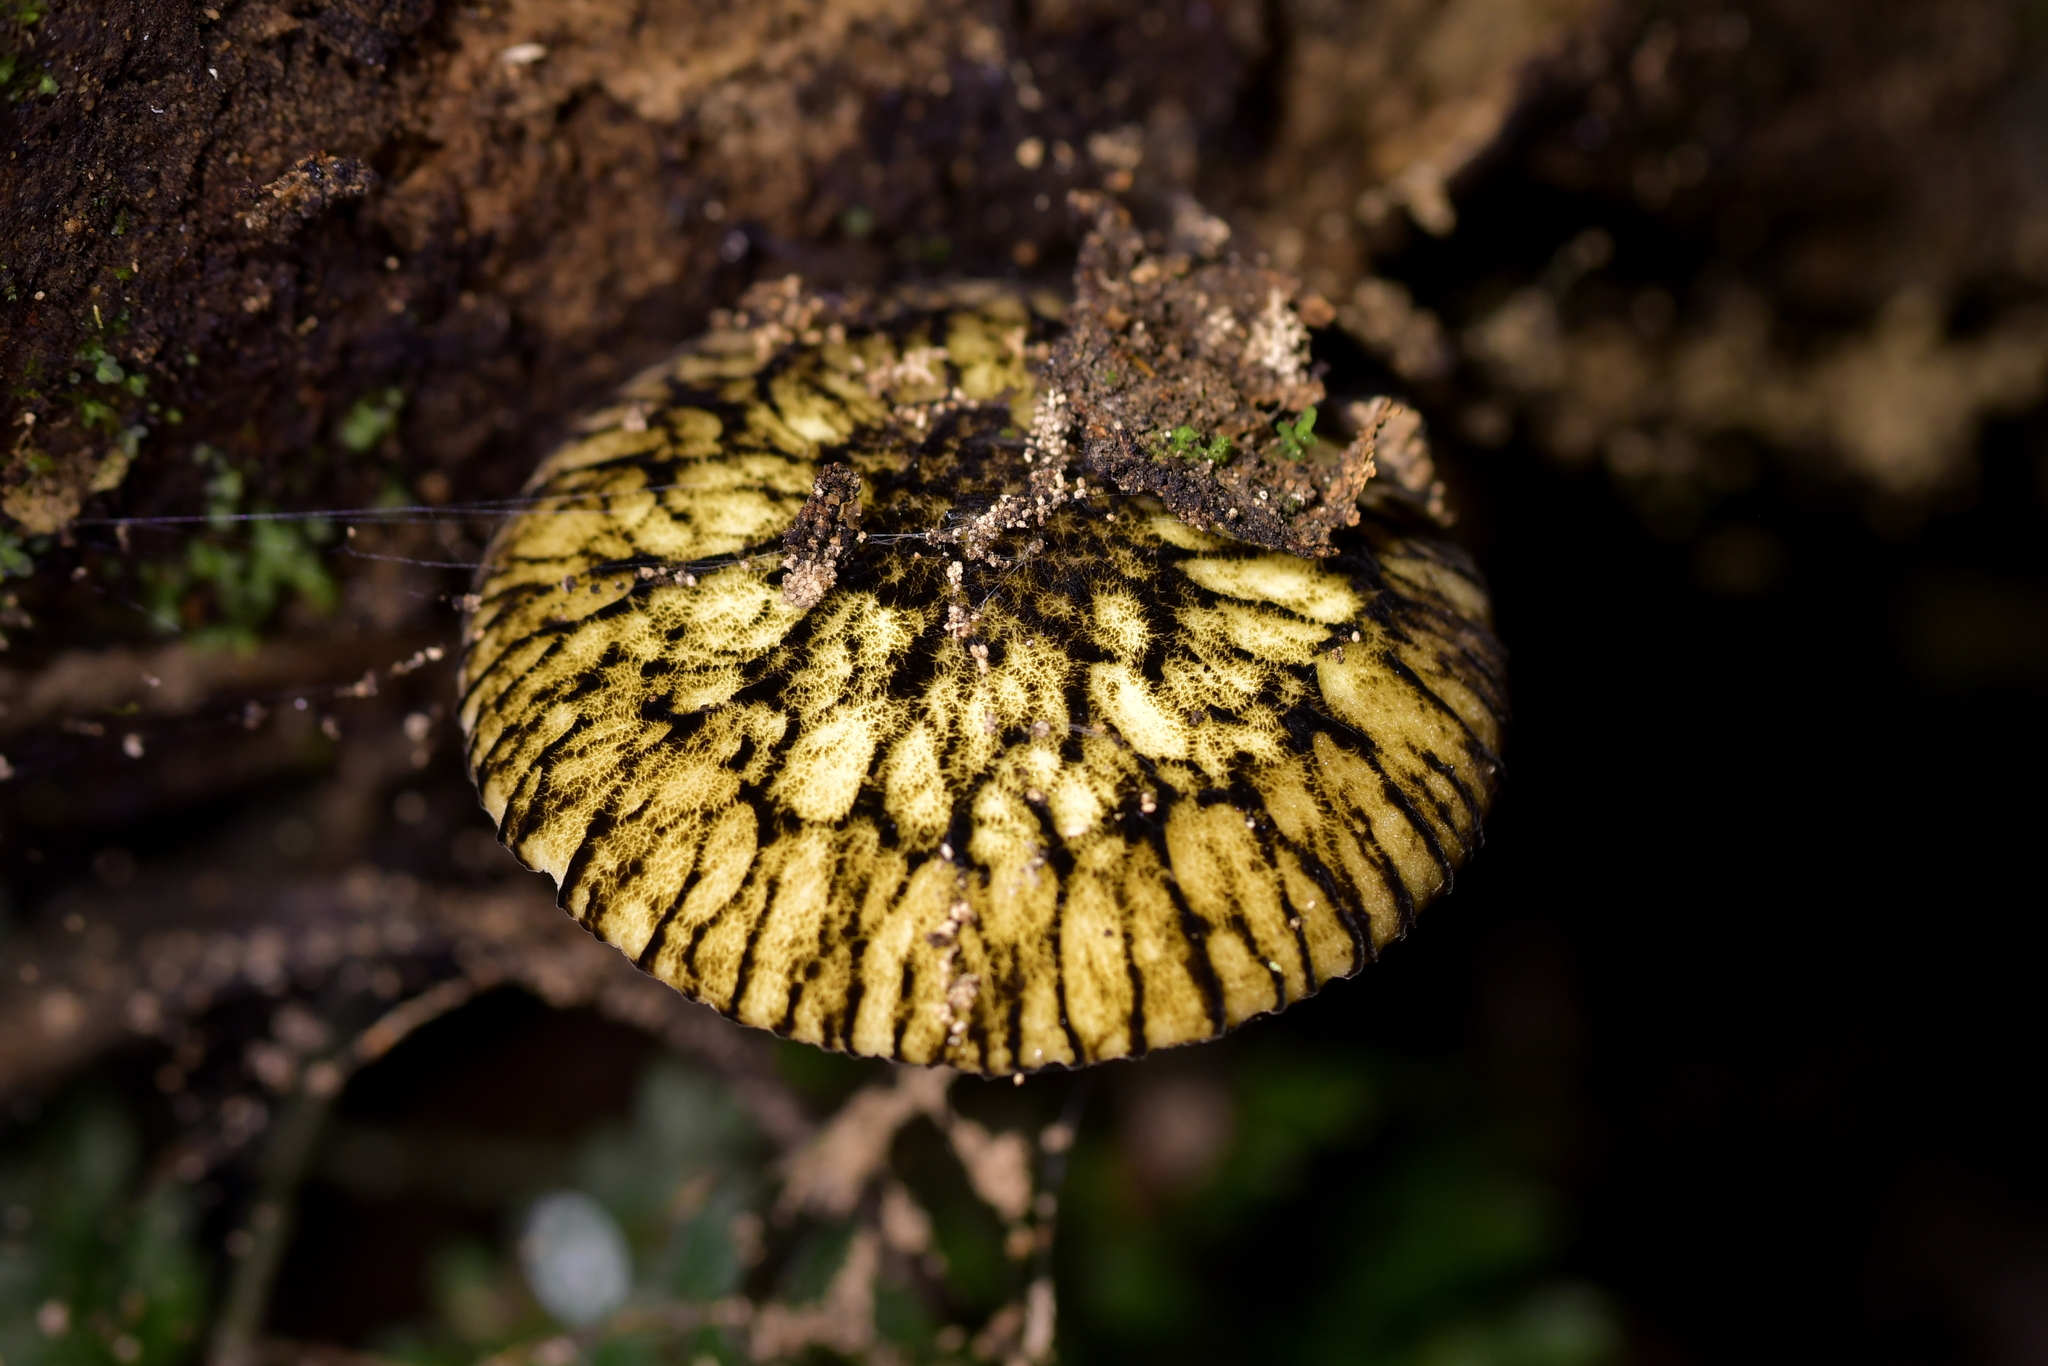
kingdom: Fungi
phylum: Basidiomycota
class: Agaricomycetes
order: Agaricales
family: Pluteaceae
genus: Pluteus
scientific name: Pluteus readiarum
